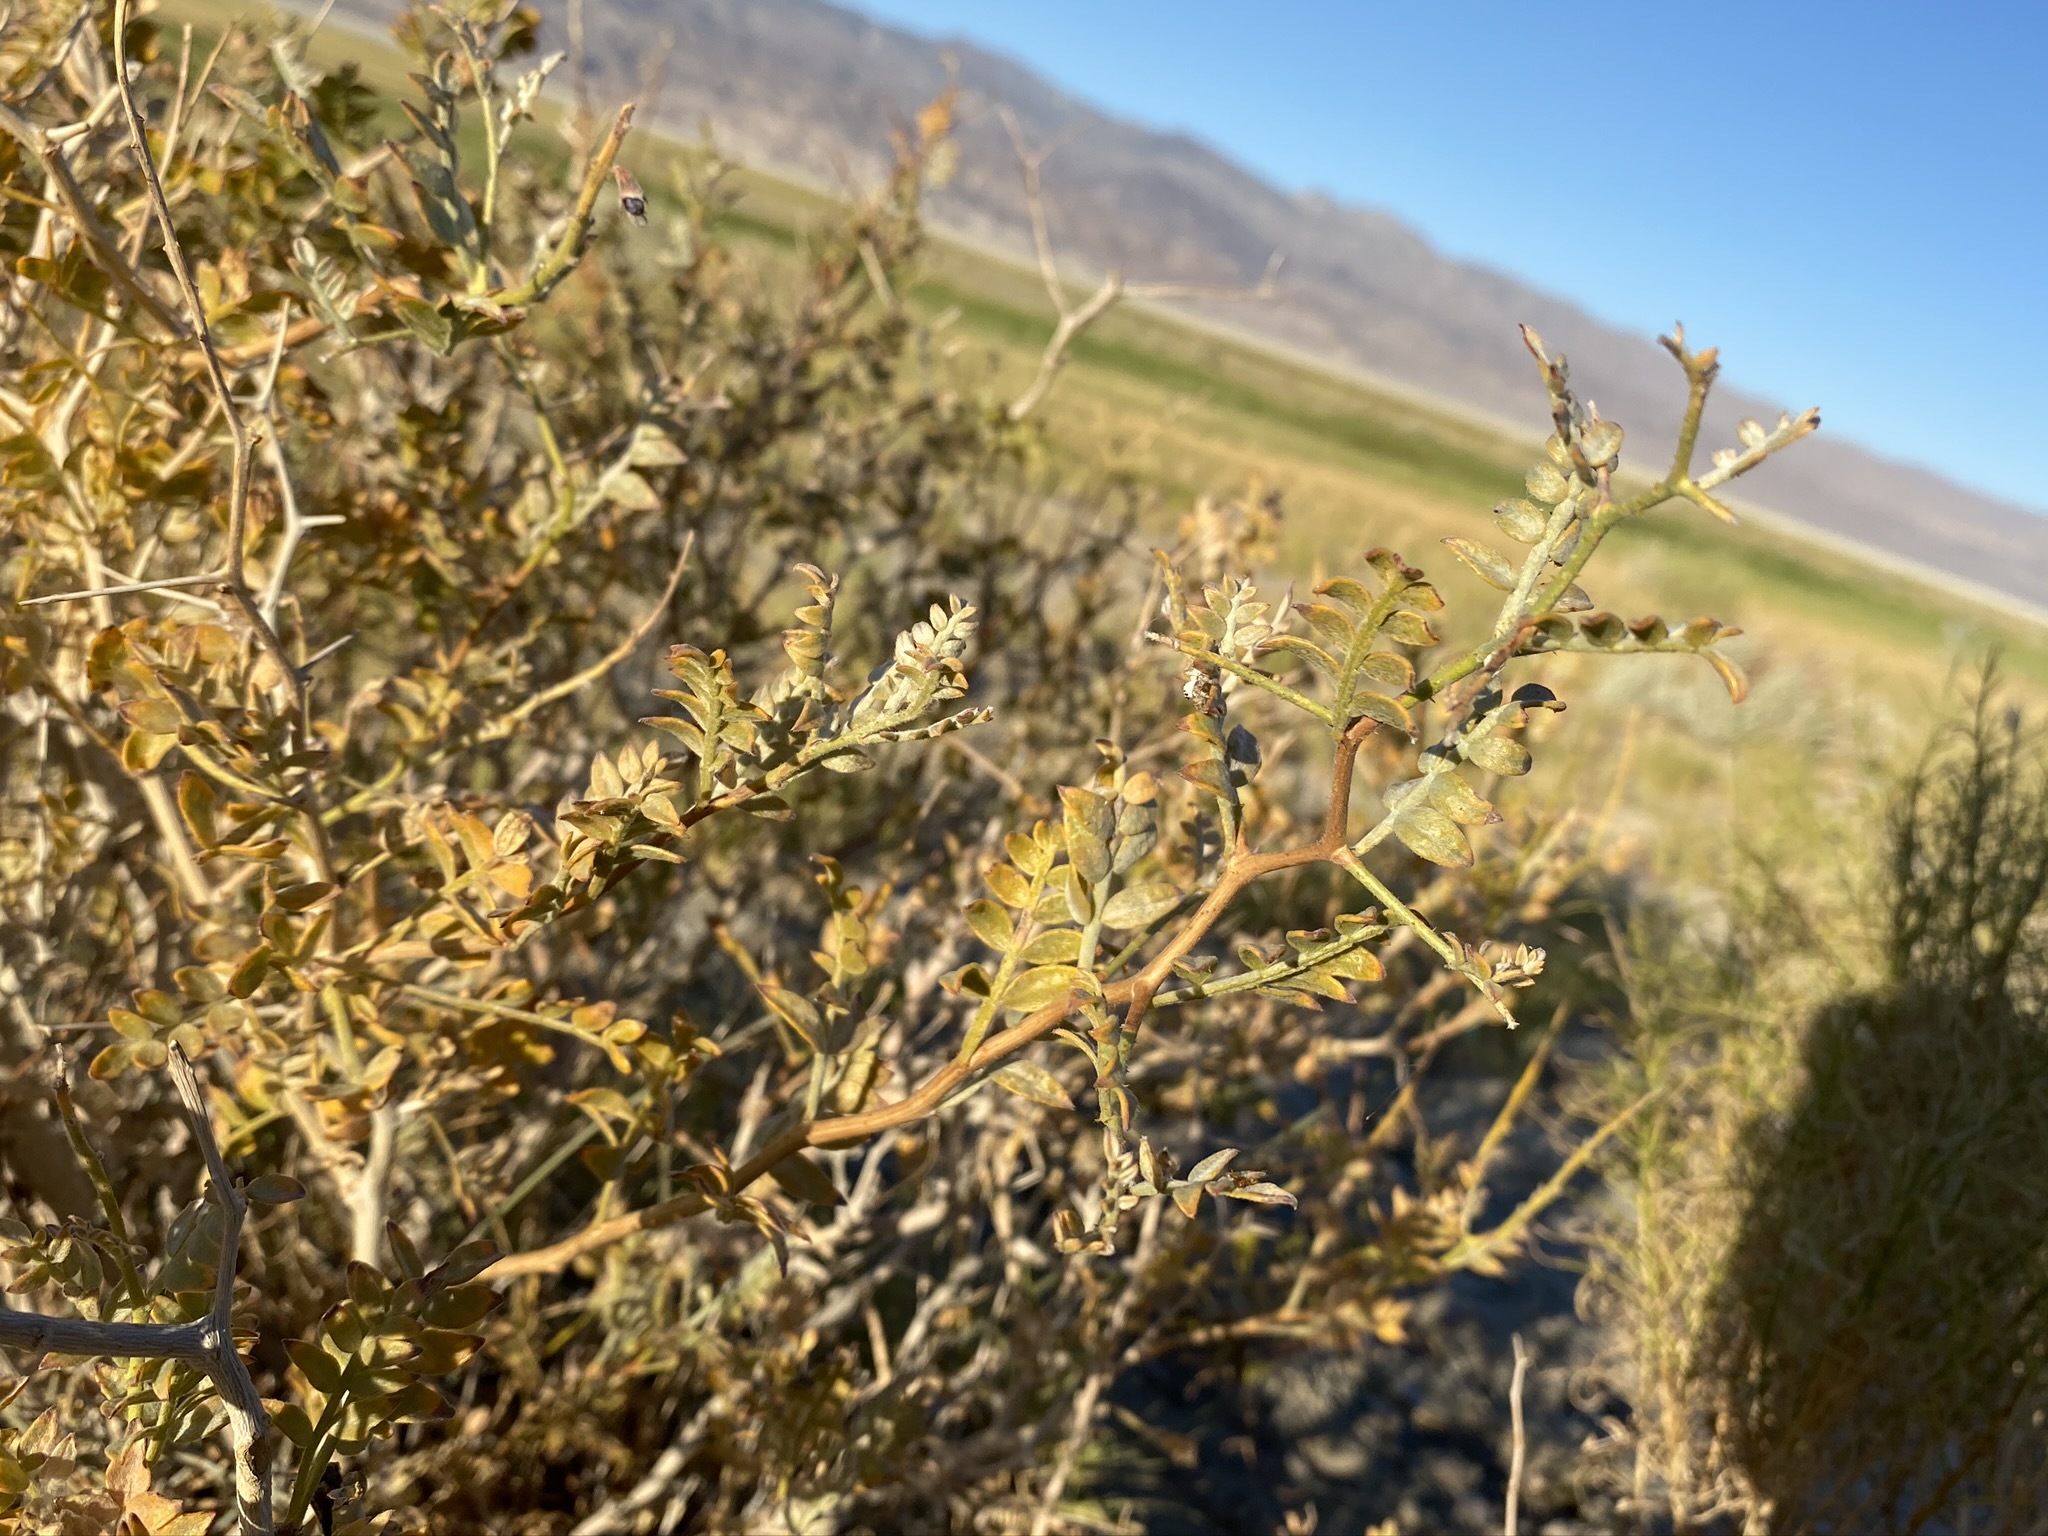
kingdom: Plantae
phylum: Tracheophyta
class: Magnoliopsida
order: Fabales
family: Fabaceae
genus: Psorothamnus
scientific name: Psorothamnus arborescens
